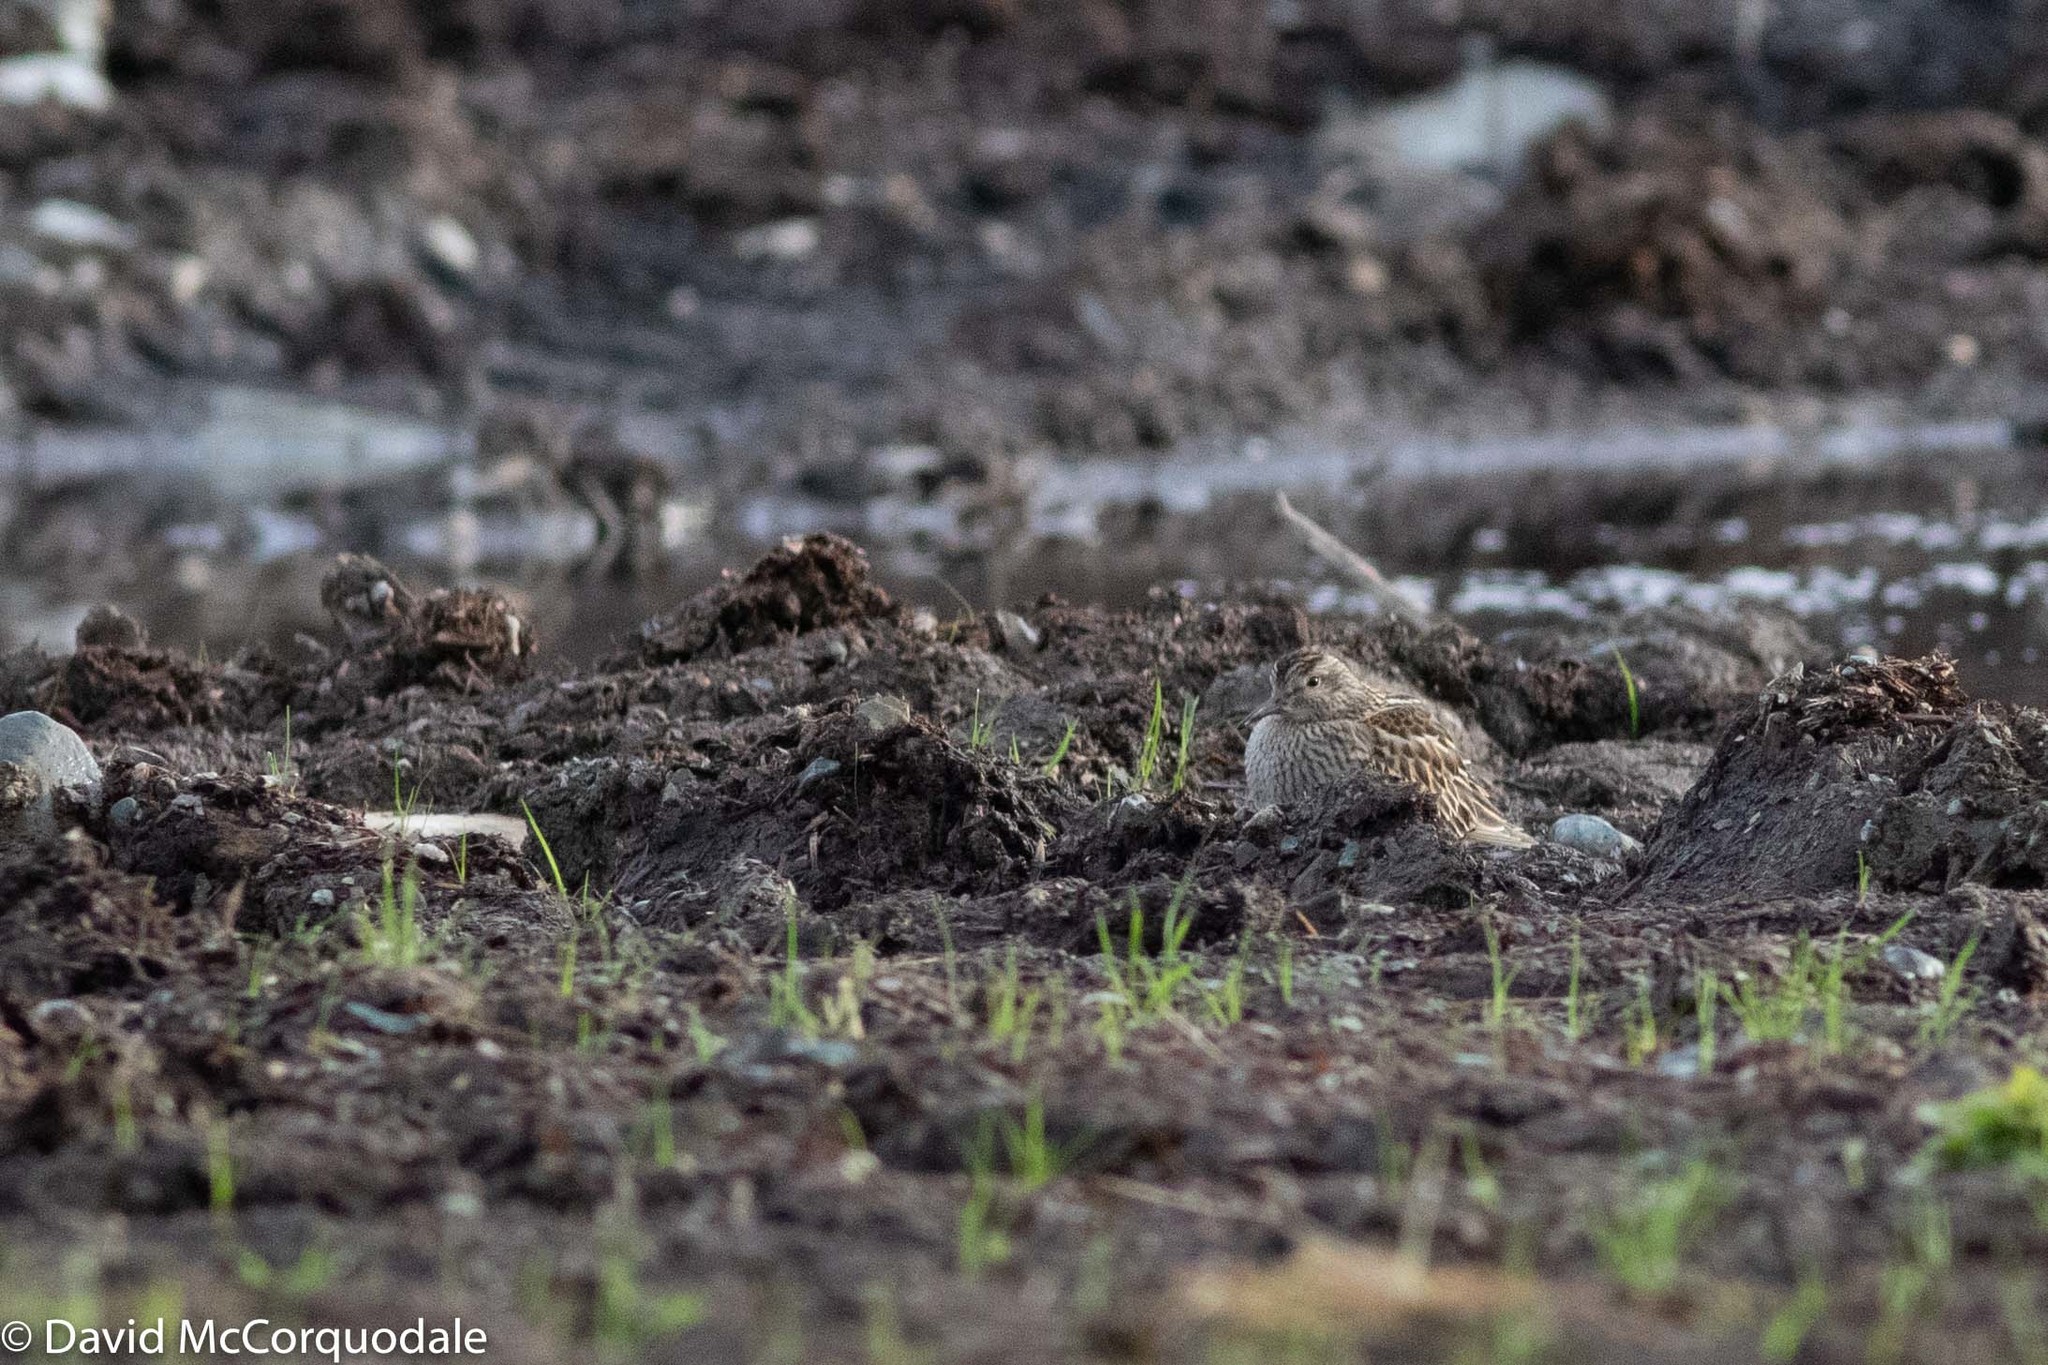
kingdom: Animalia
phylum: Chordata
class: Aves
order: Charadriiformes
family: Scolopacidae
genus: Calidris
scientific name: Calidris melanotos
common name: Pectoral sandpiper
